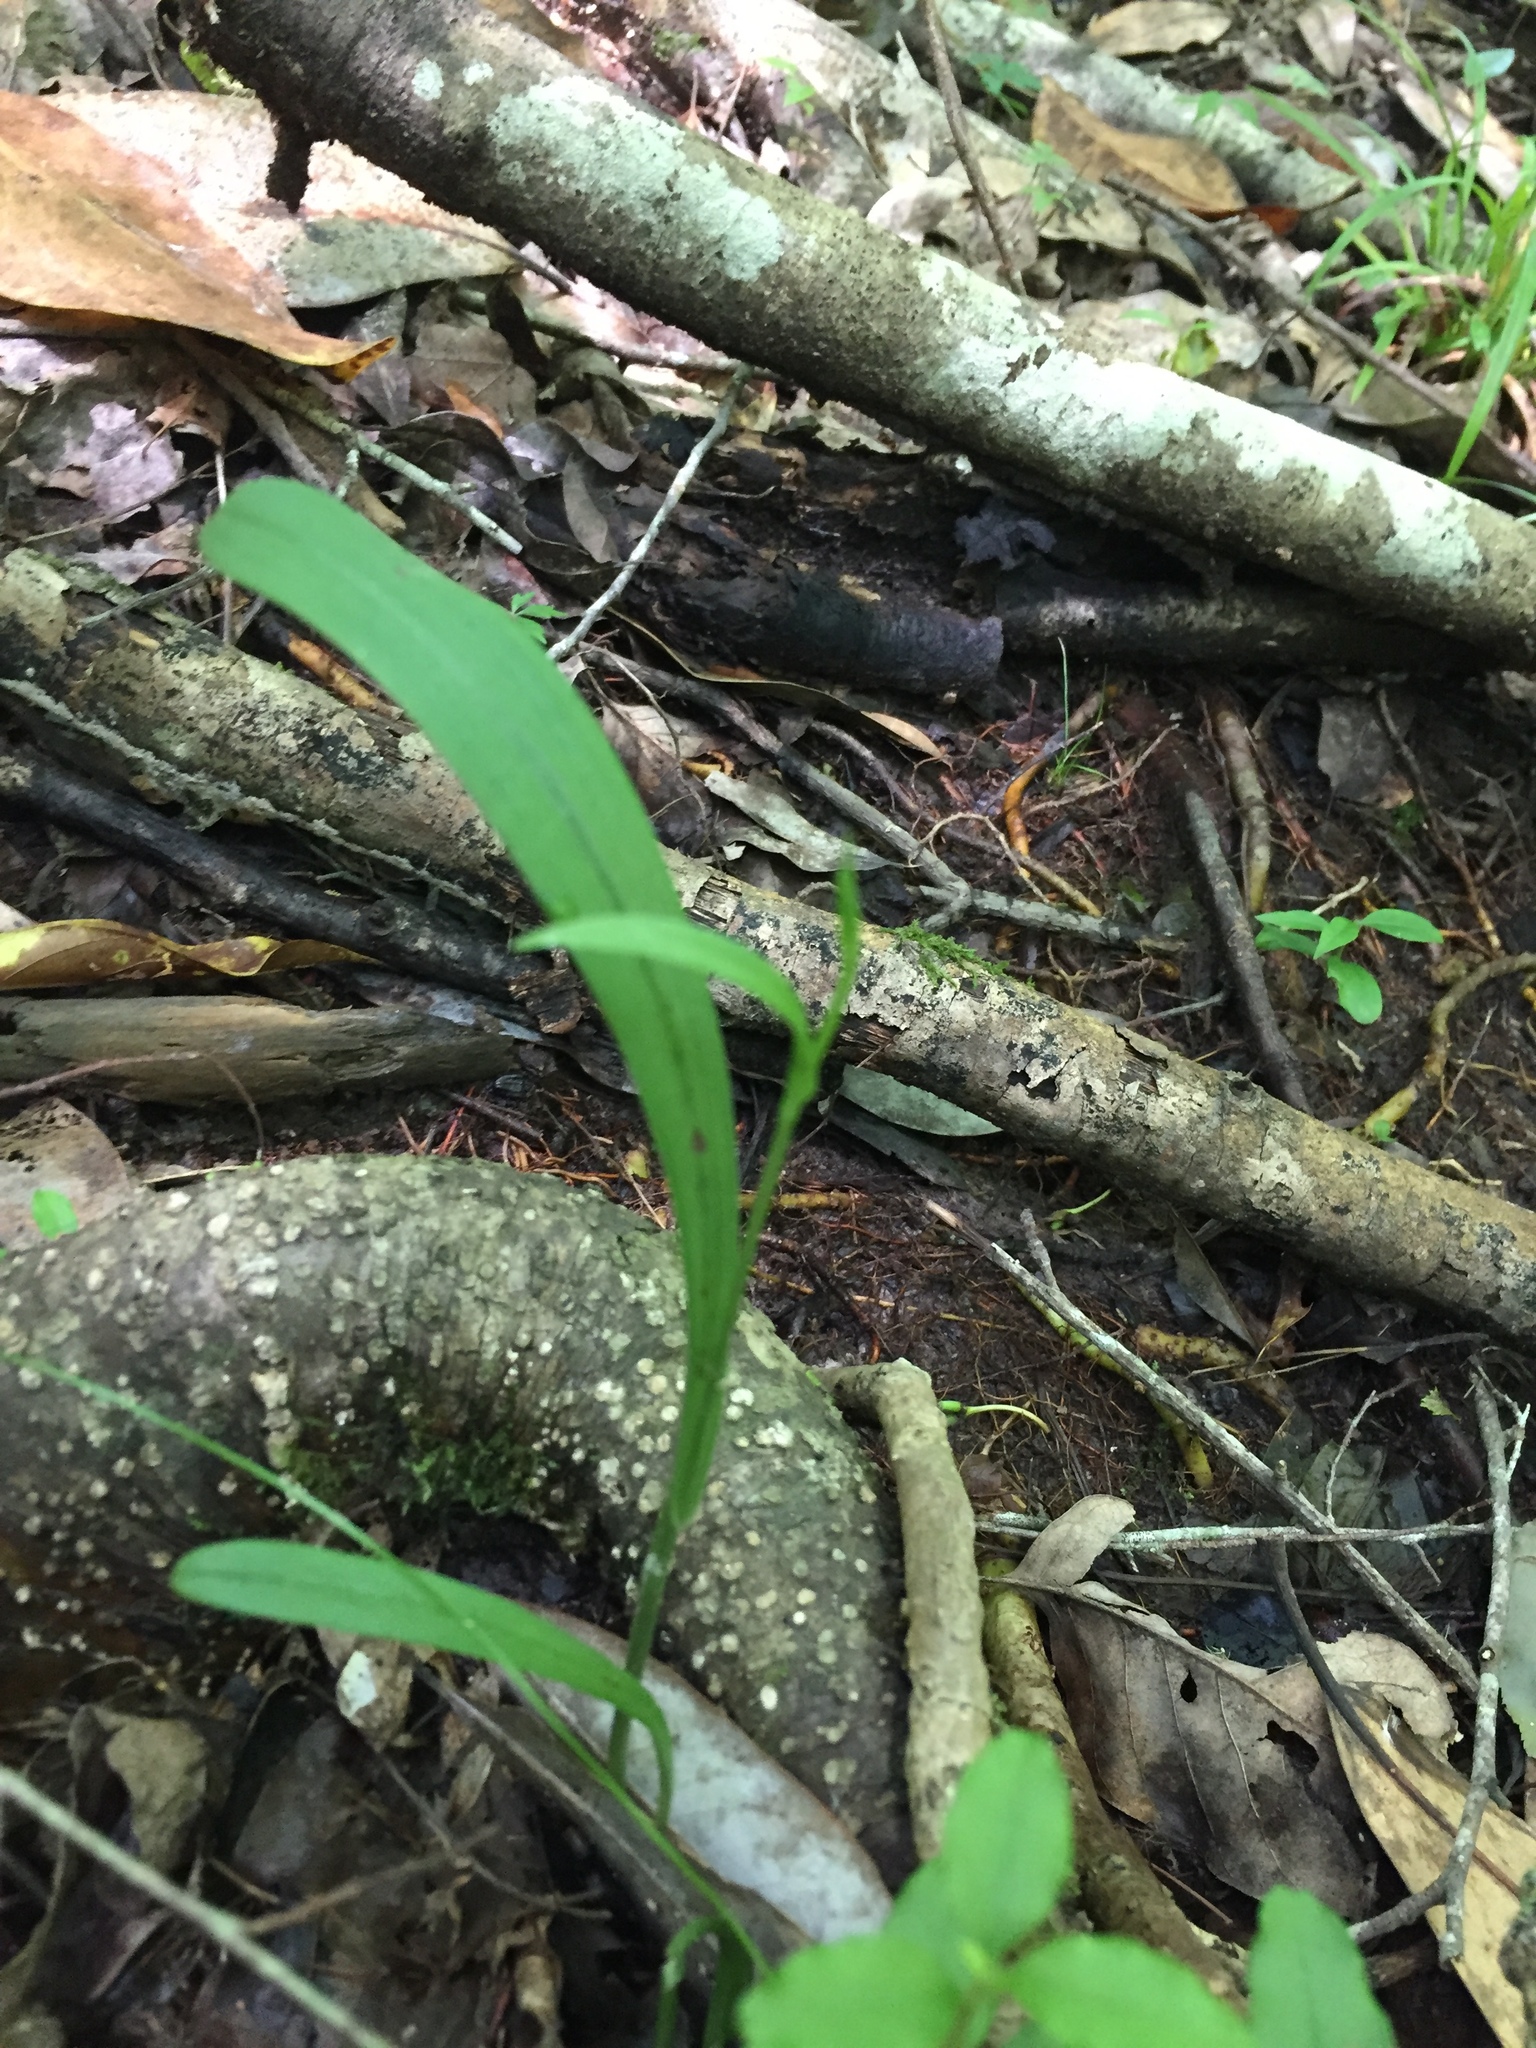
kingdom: Plantae
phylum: Tracheophyta
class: Liliopsida
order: Asparagales
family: Orchidaceae
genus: Platanthera
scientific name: Platanthera clavellata
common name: Club-spur orchid
